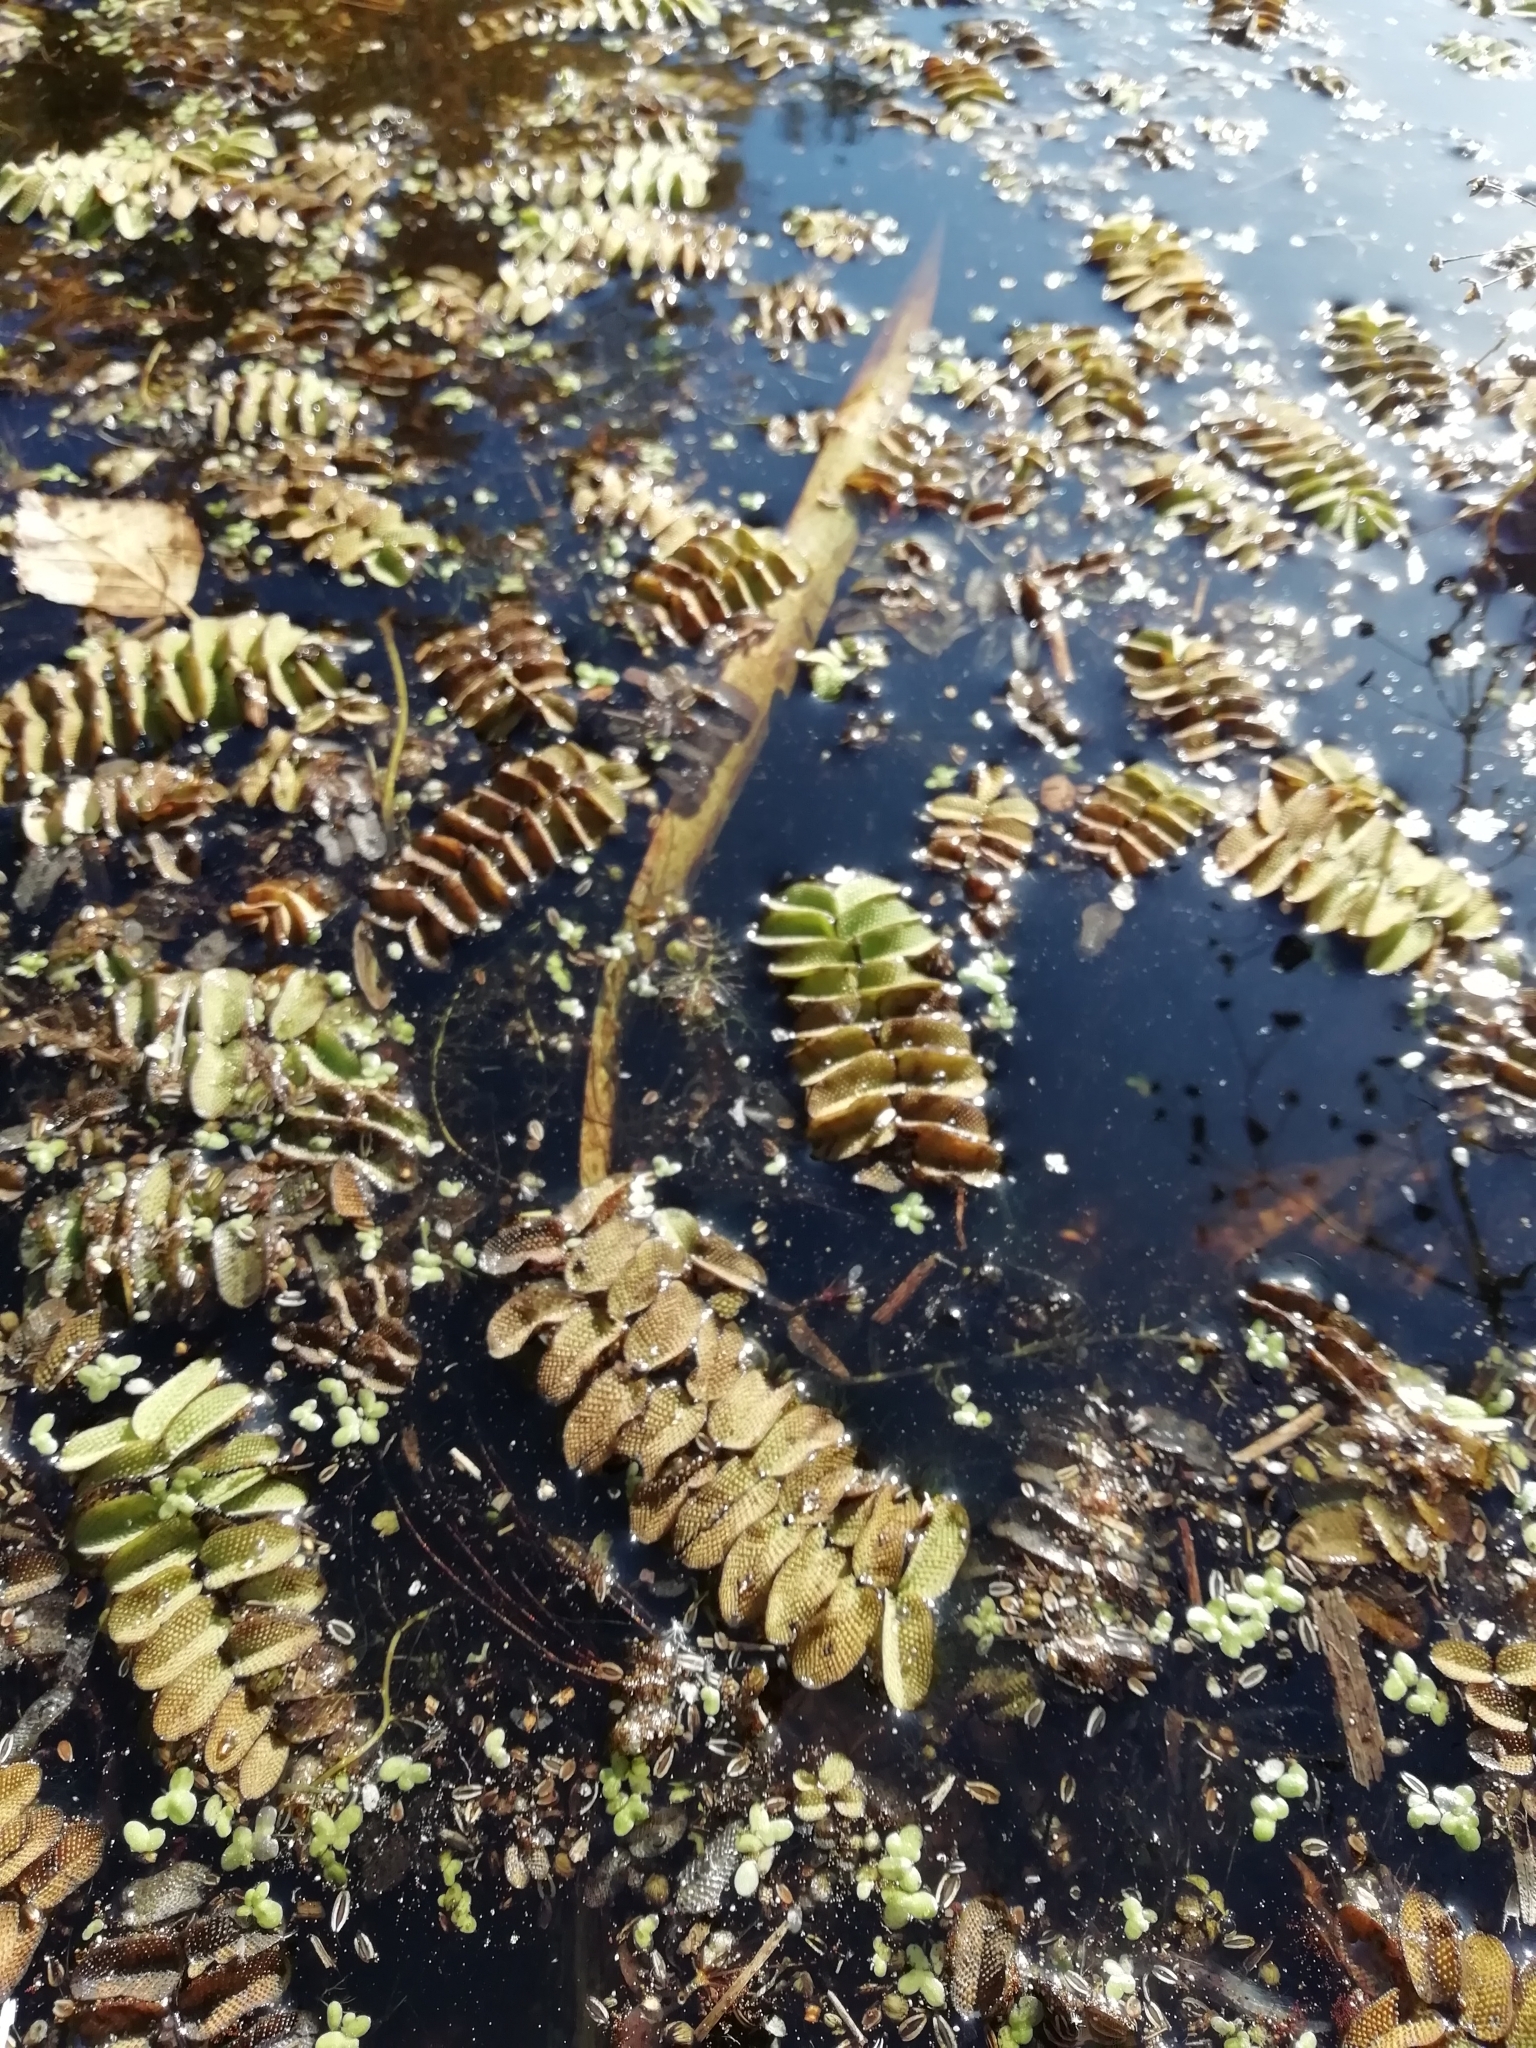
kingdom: Plantae
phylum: Tracheophyta
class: Polypodiopsida
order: Salviniales
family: Salviniaceae
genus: Salvinia
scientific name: Salvinia natans
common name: Floating fern
